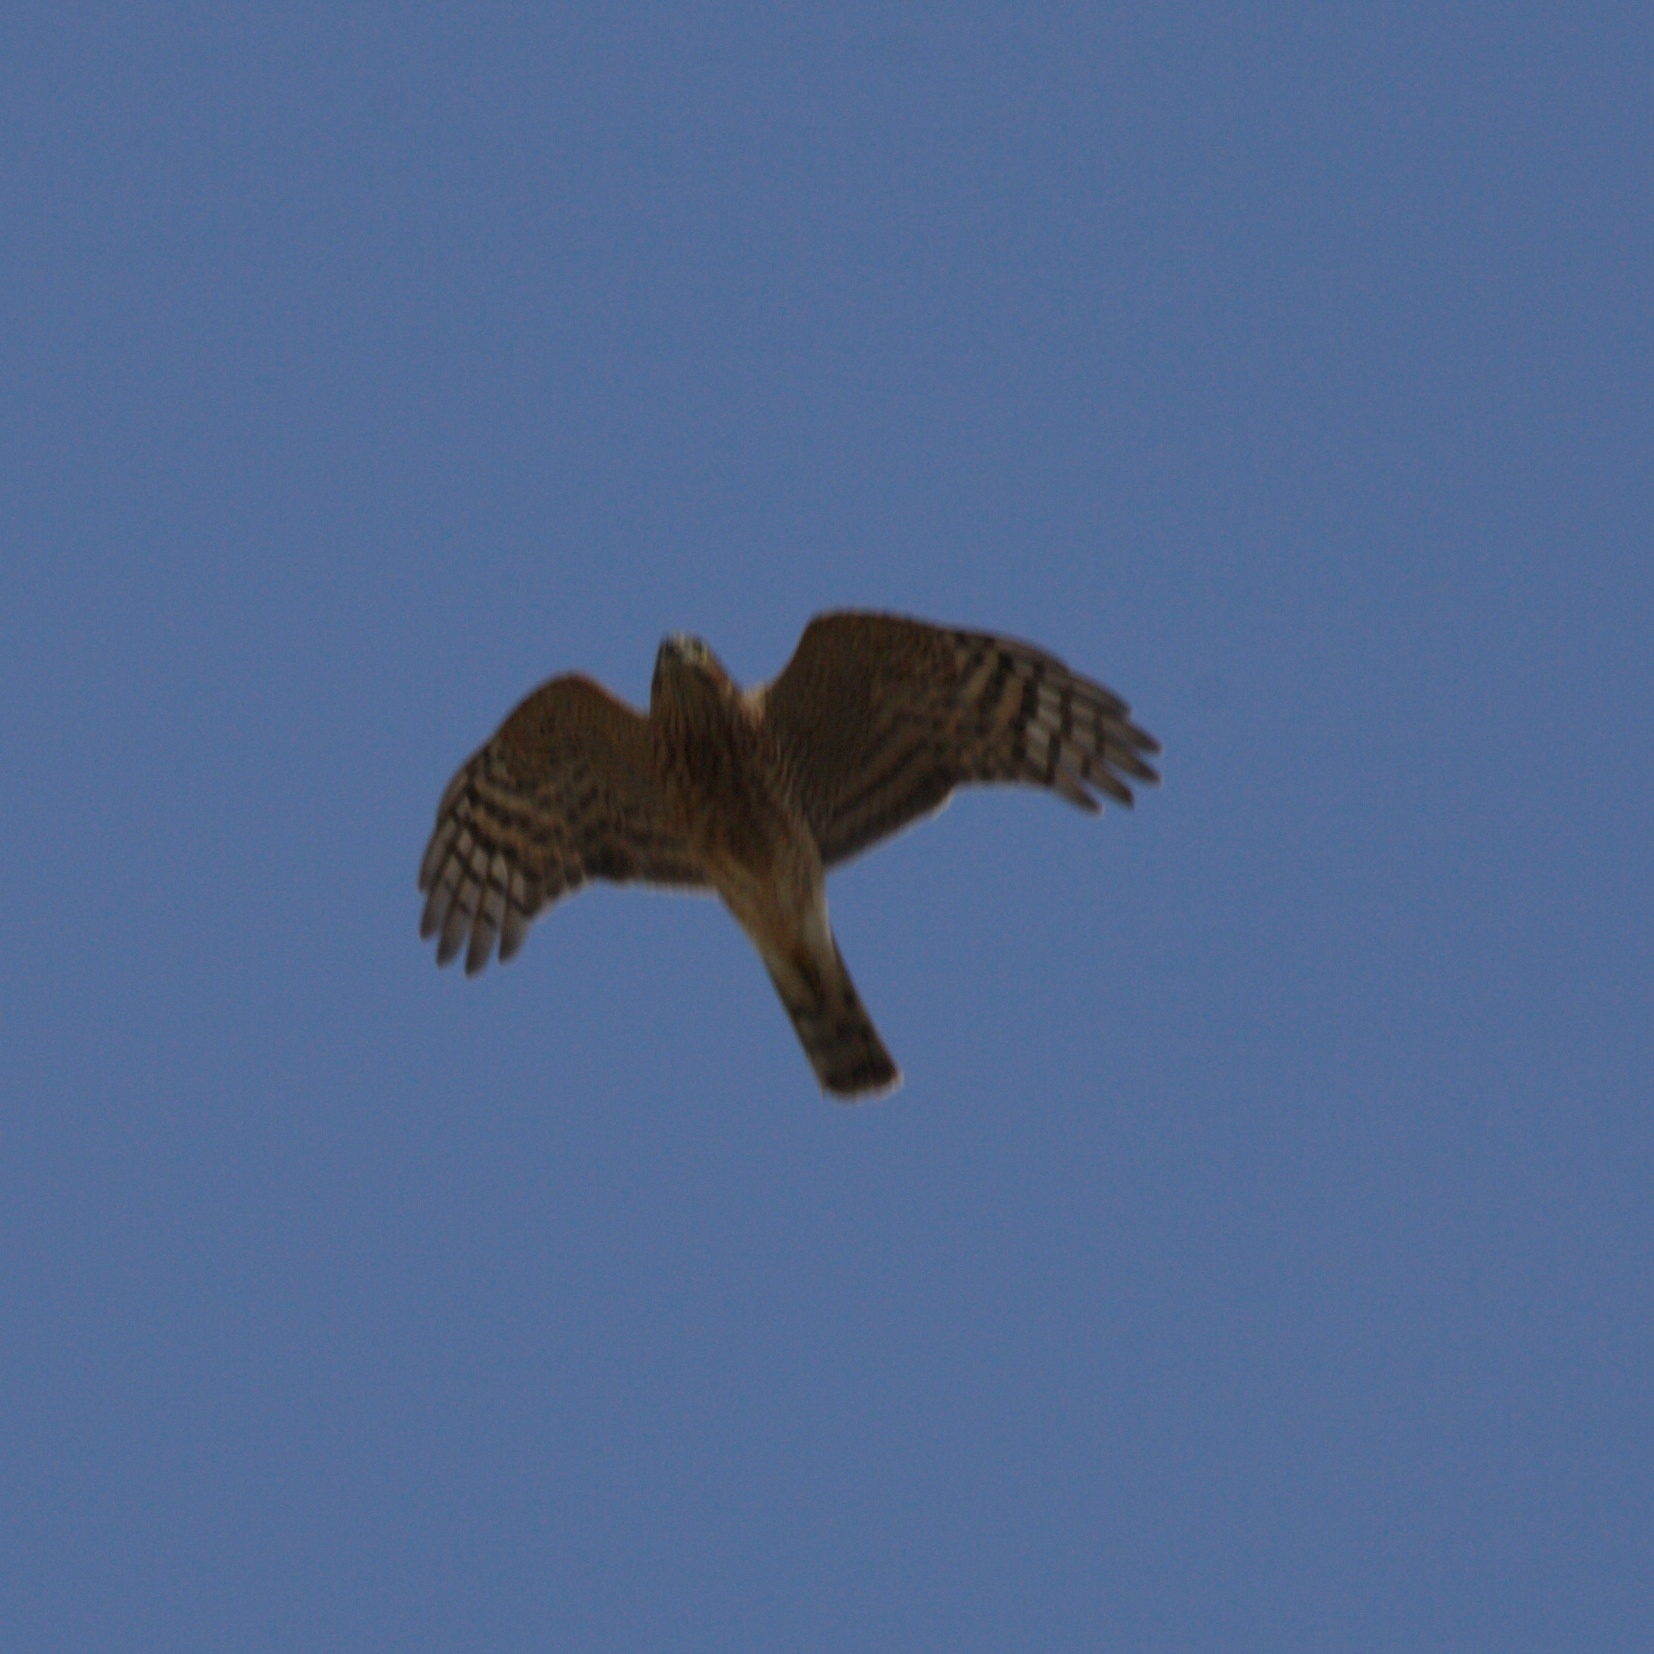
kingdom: Animalia
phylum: Chordata
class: Aves
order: Accipitriformes
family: Accipitridae
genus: Accipiter
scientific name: Accipiter nisus
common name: Eurasian sparrowhawk
